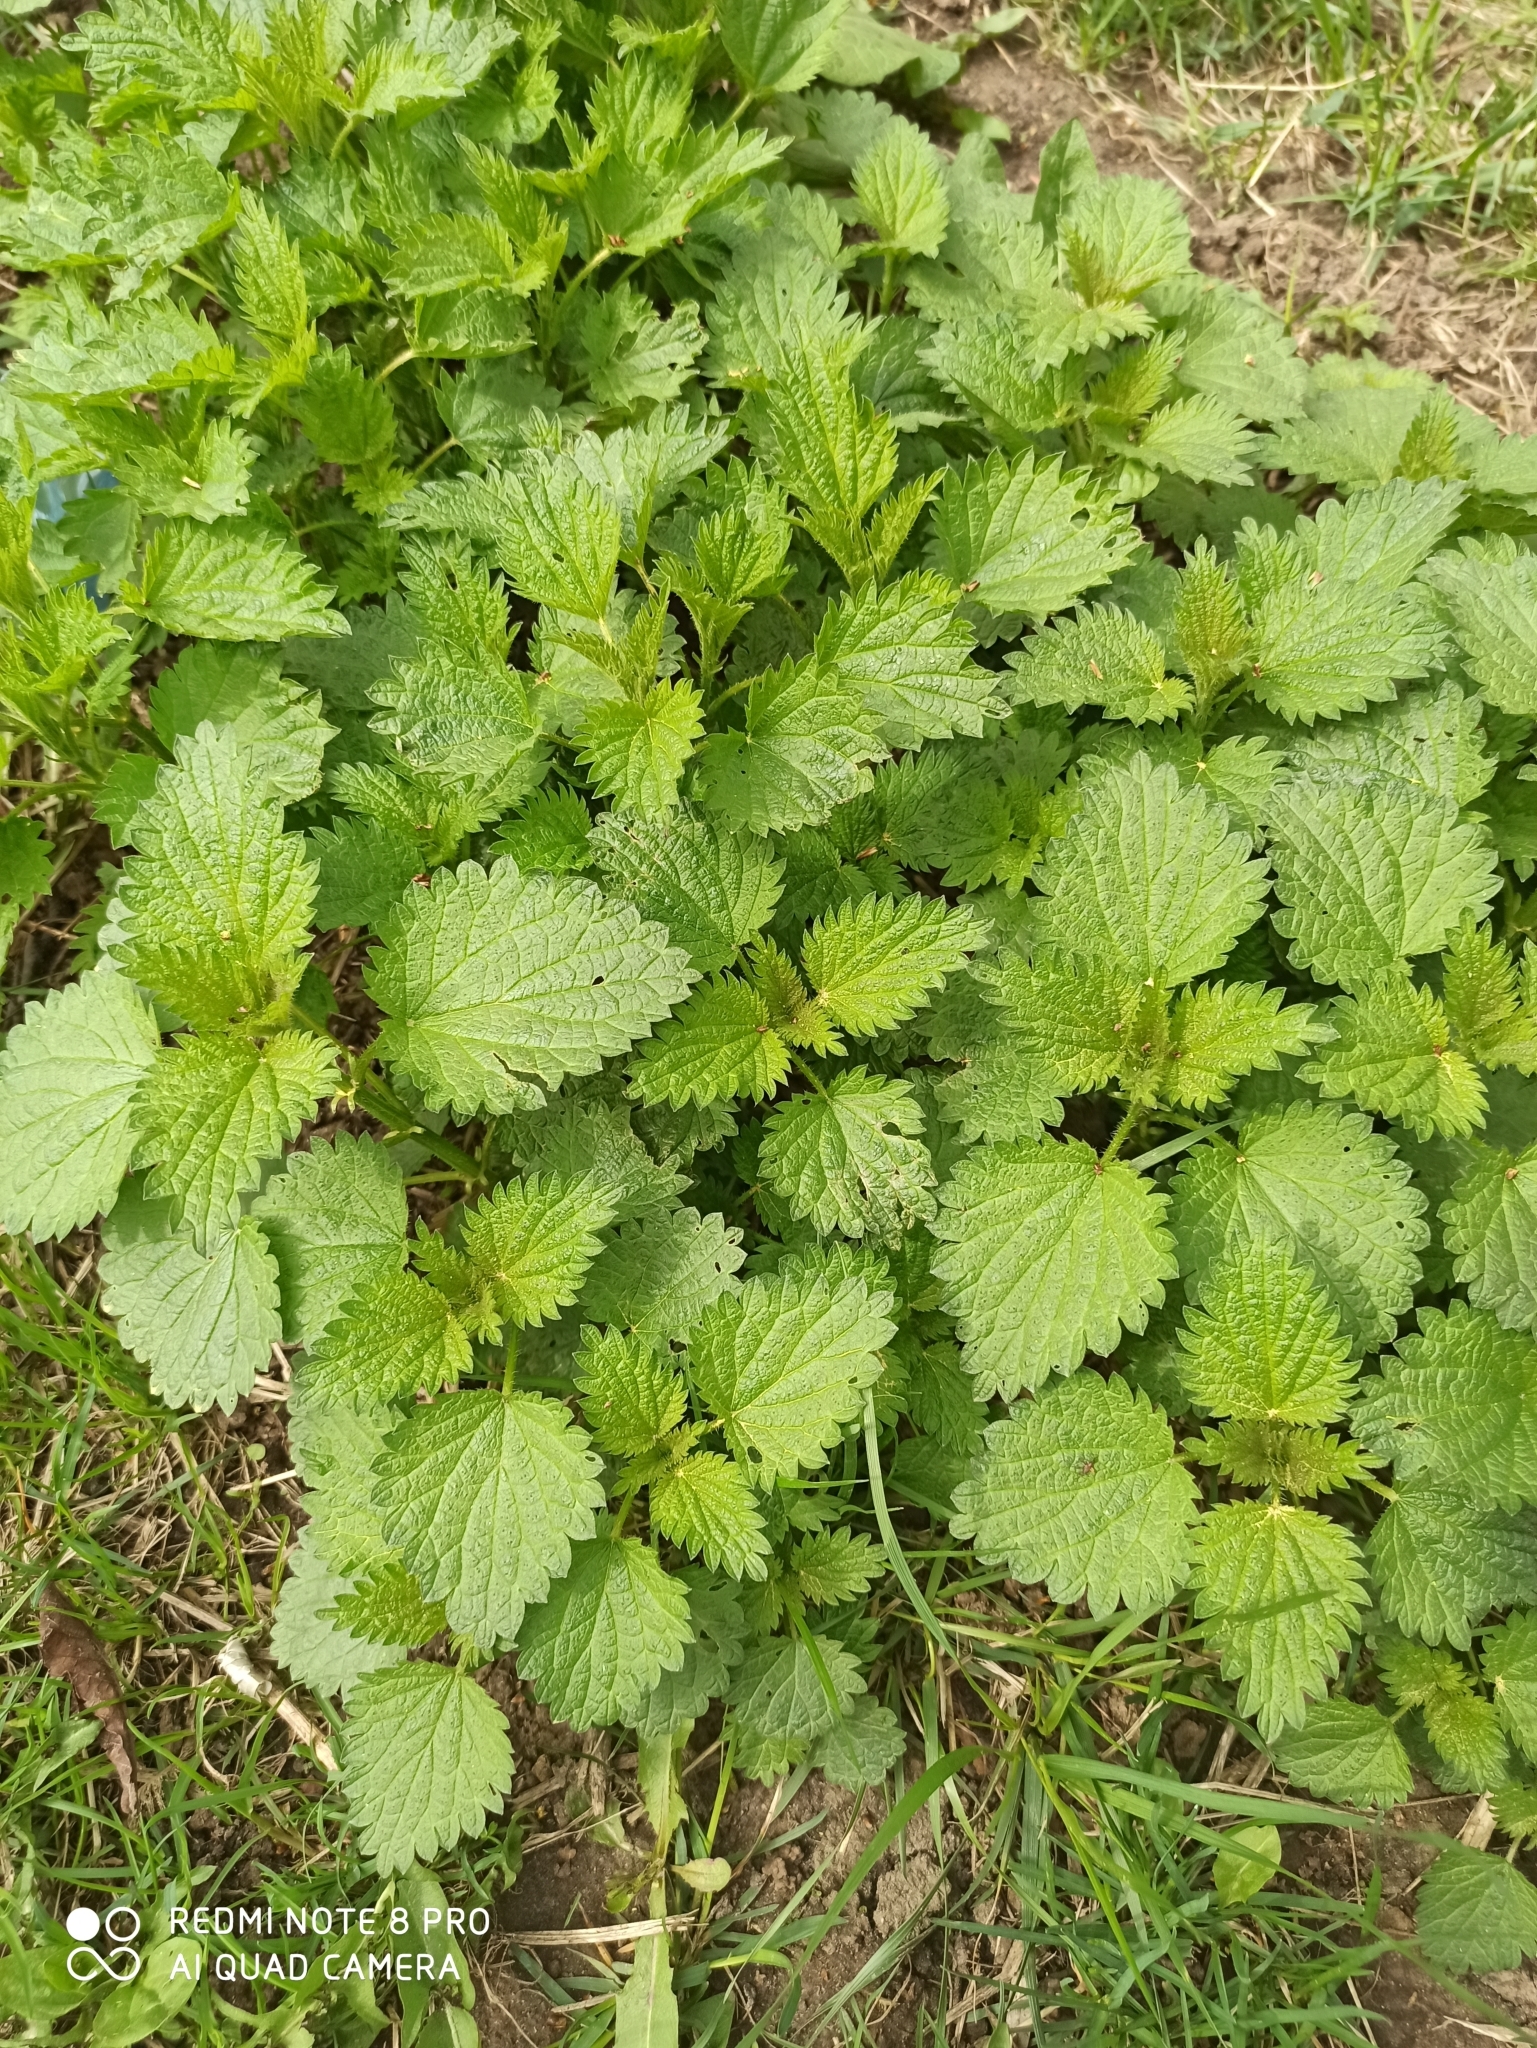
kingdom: Plantae
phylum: Tracheophyta
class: Magnoliopsida
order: Rosales
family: Urticaceae
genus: Urtica
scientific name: Urtica dioica
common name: Common nettle
